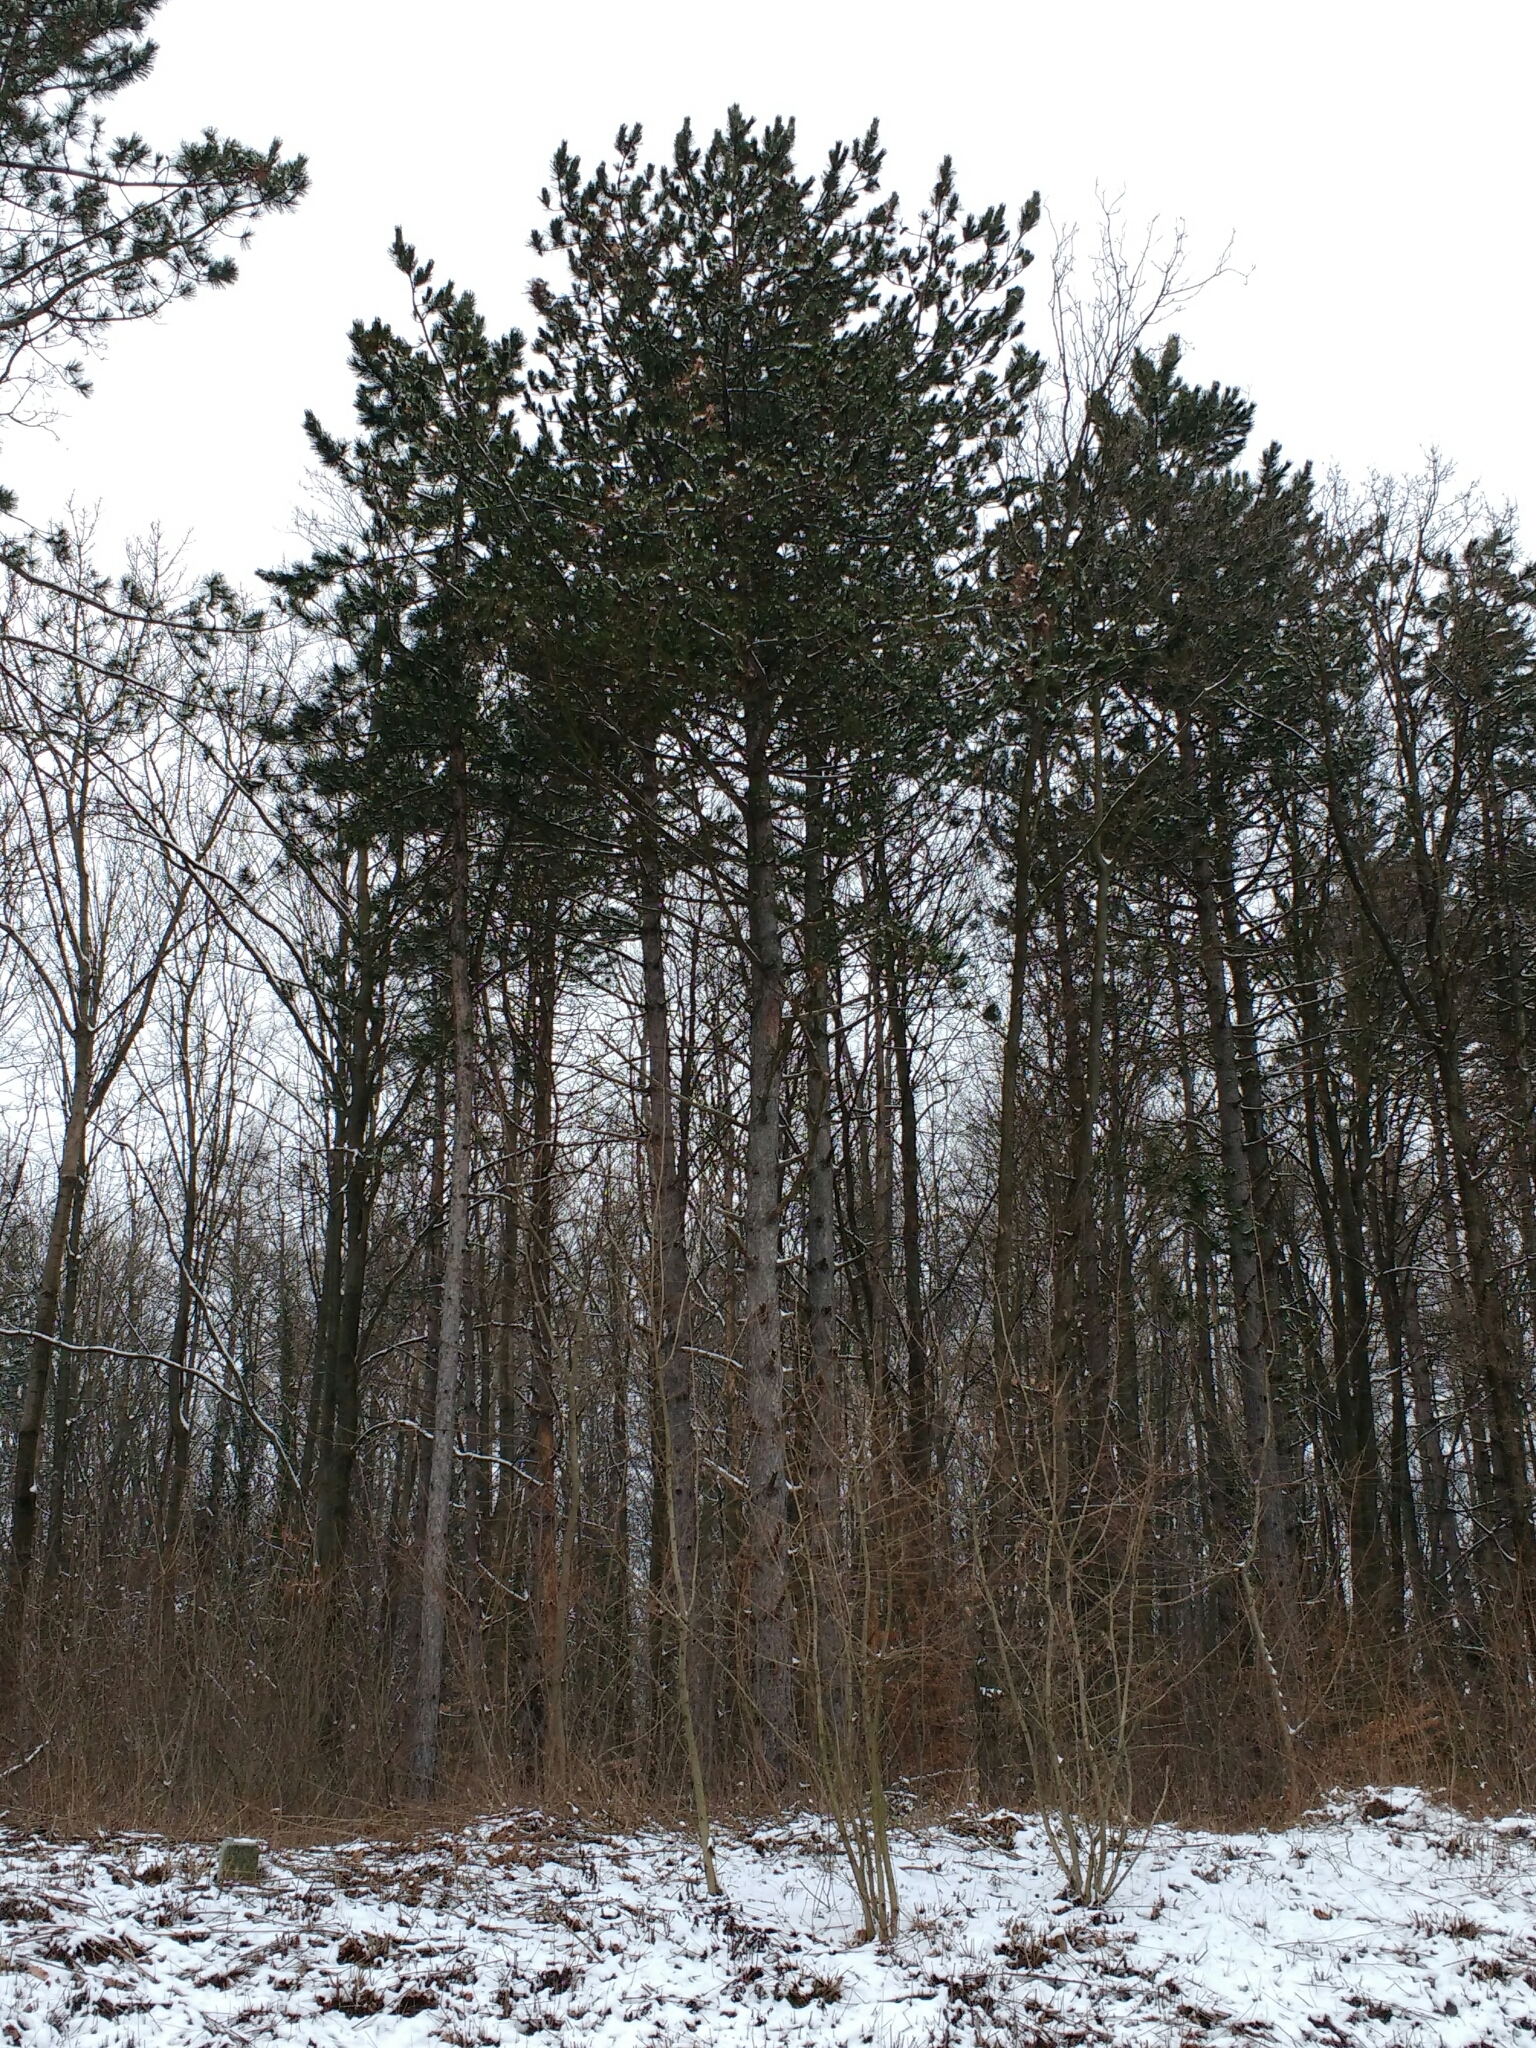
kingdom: Plantae
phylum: Tracheophyta
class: Pinopsida
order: Pinales
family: Pinaceae
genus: Pinus
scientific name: Pinus nigra
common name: Austrian pine
